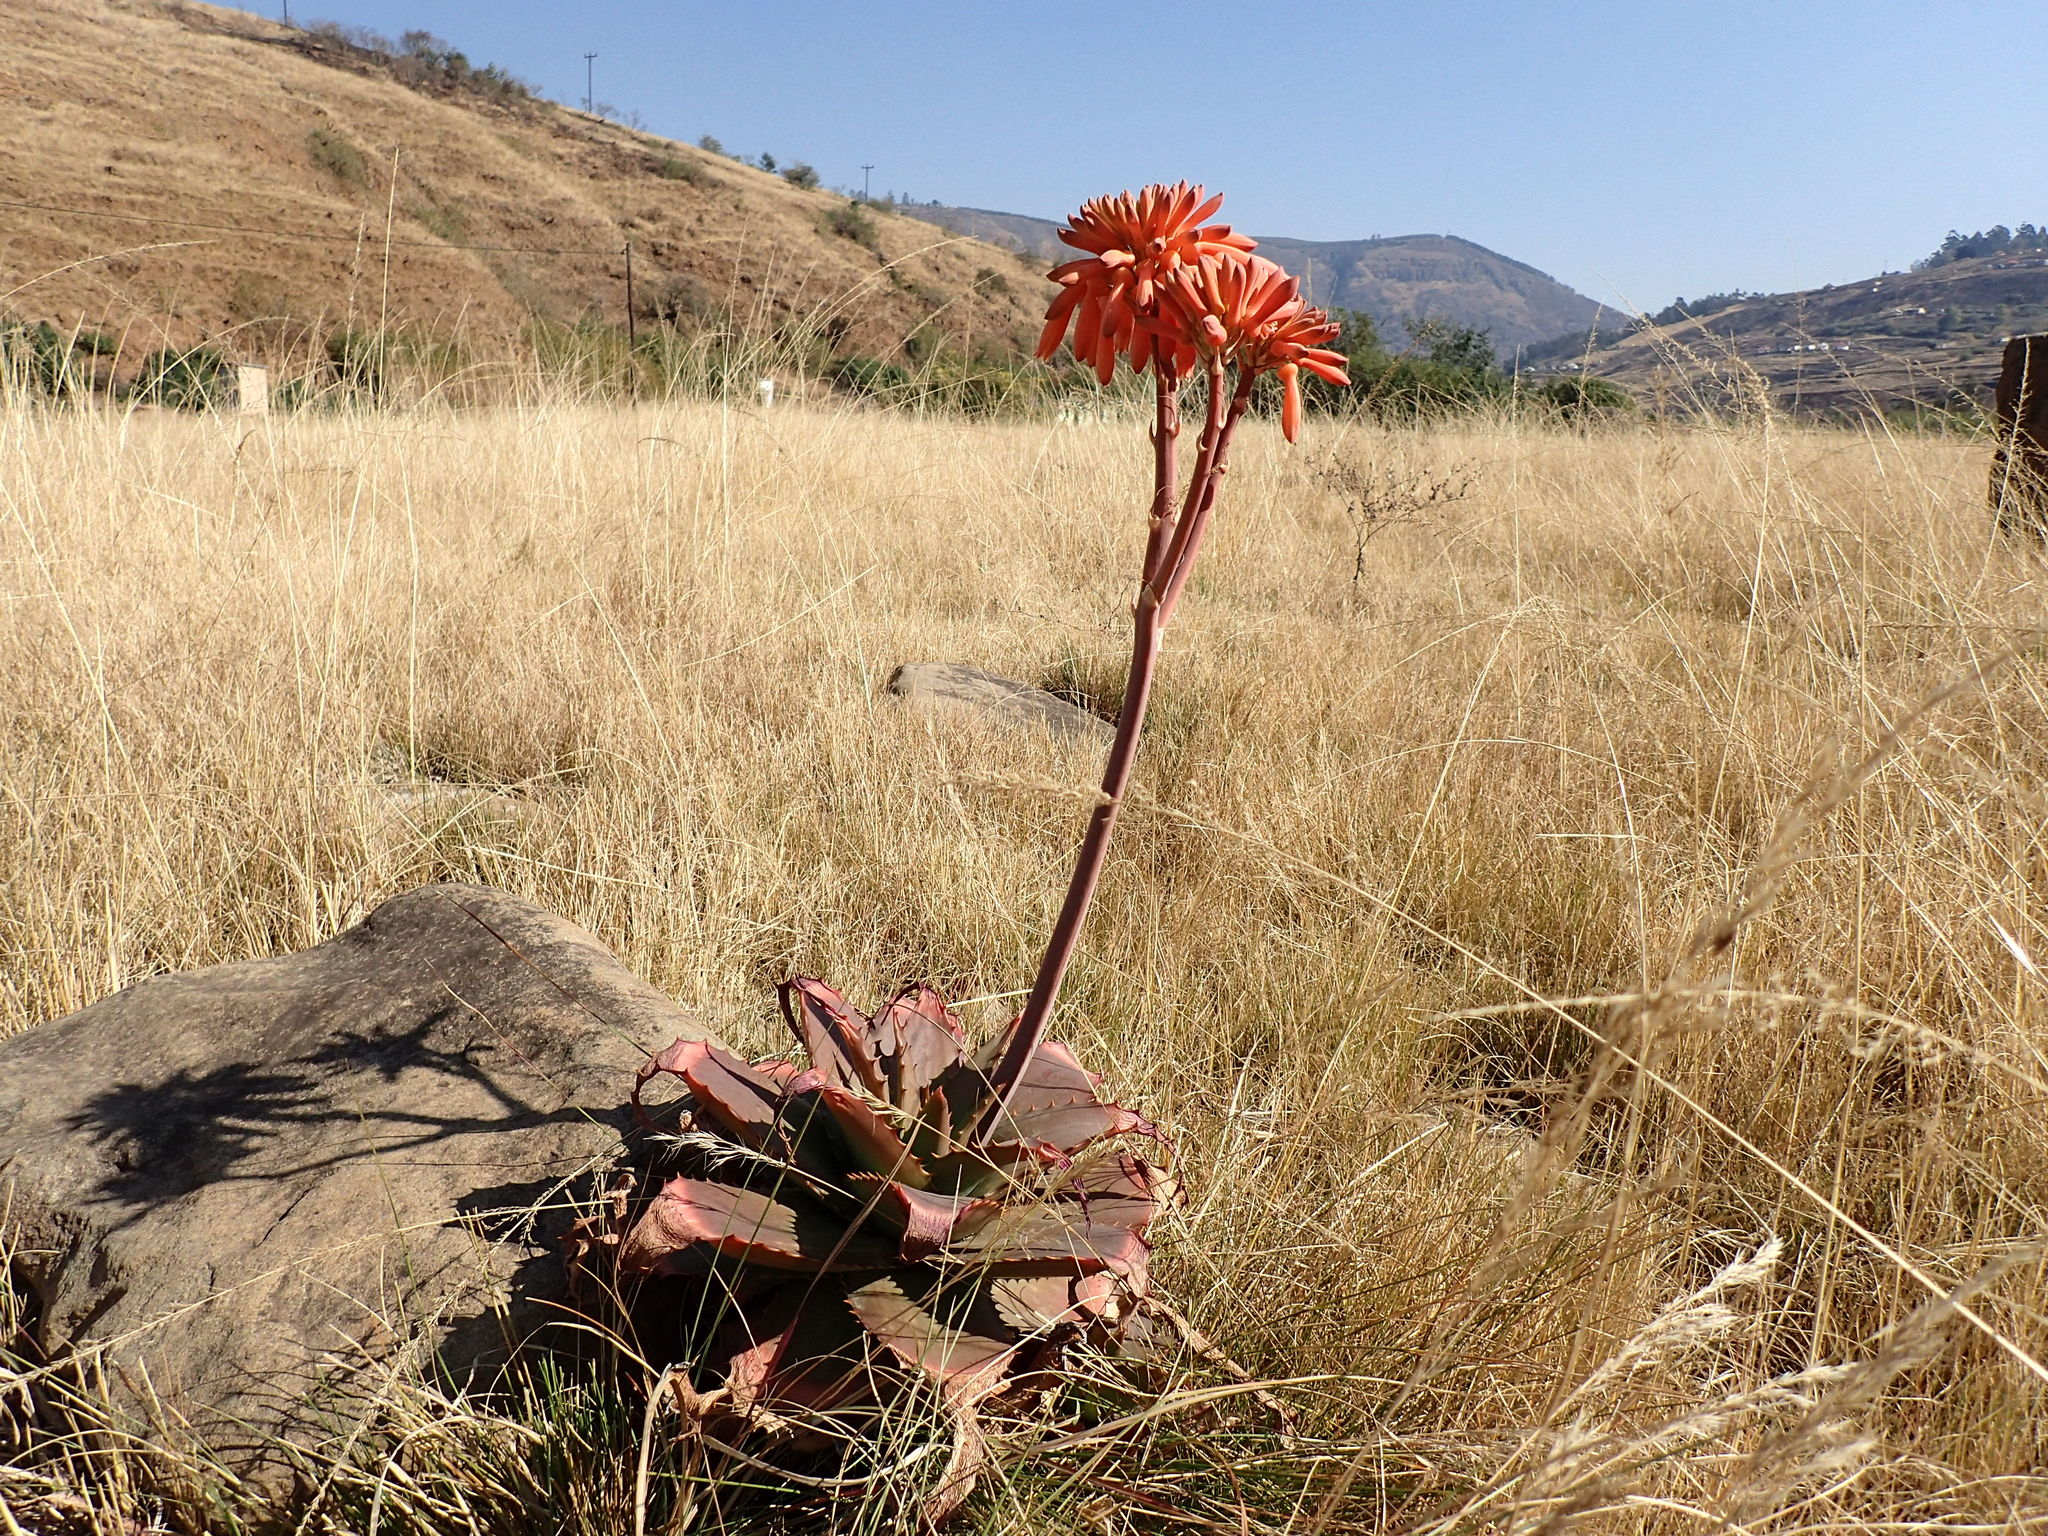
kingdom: Plantae
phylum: Tracheophyta
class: Liliopsida
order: Asparagales
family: Asphodelaceae
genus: Aloe
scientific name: Aloe maculata
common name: Broadleaf aloe
